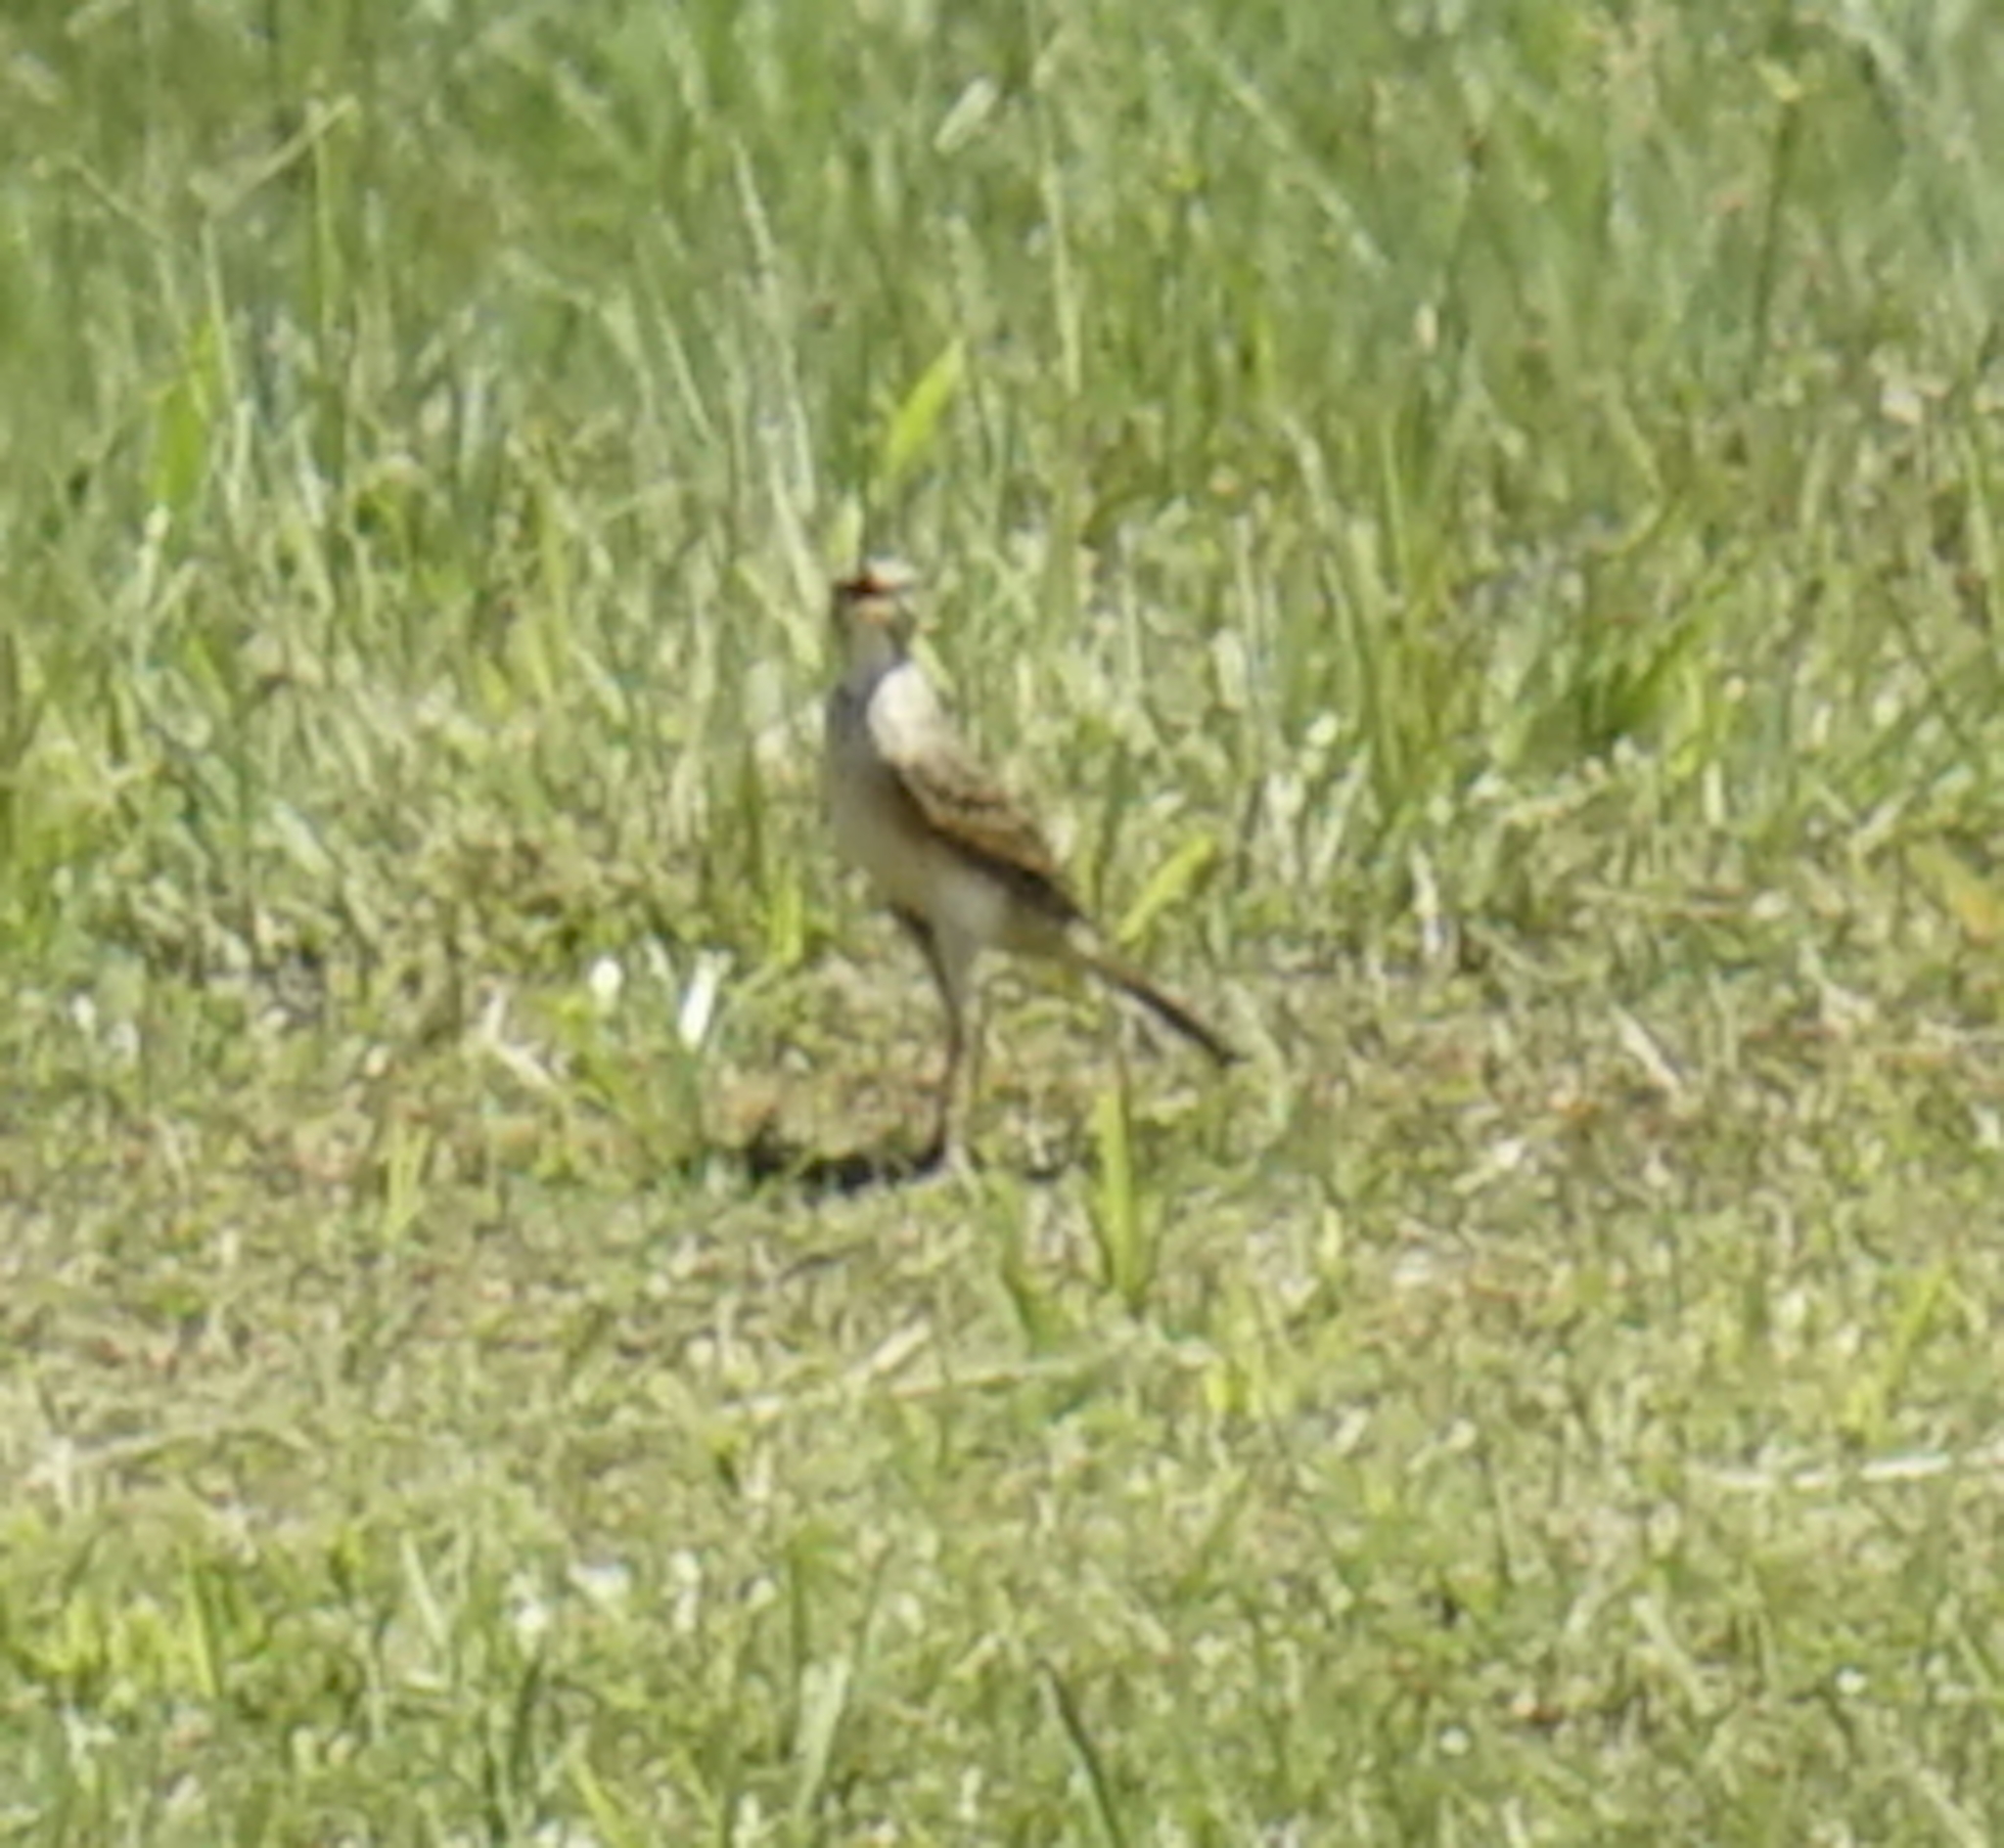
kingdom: Animalia
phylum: Chordata
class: Aves
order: Passeriformes
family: Motacillidae
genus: Anthus
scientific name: Anthus rufulus
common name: Paddyfield pipit
